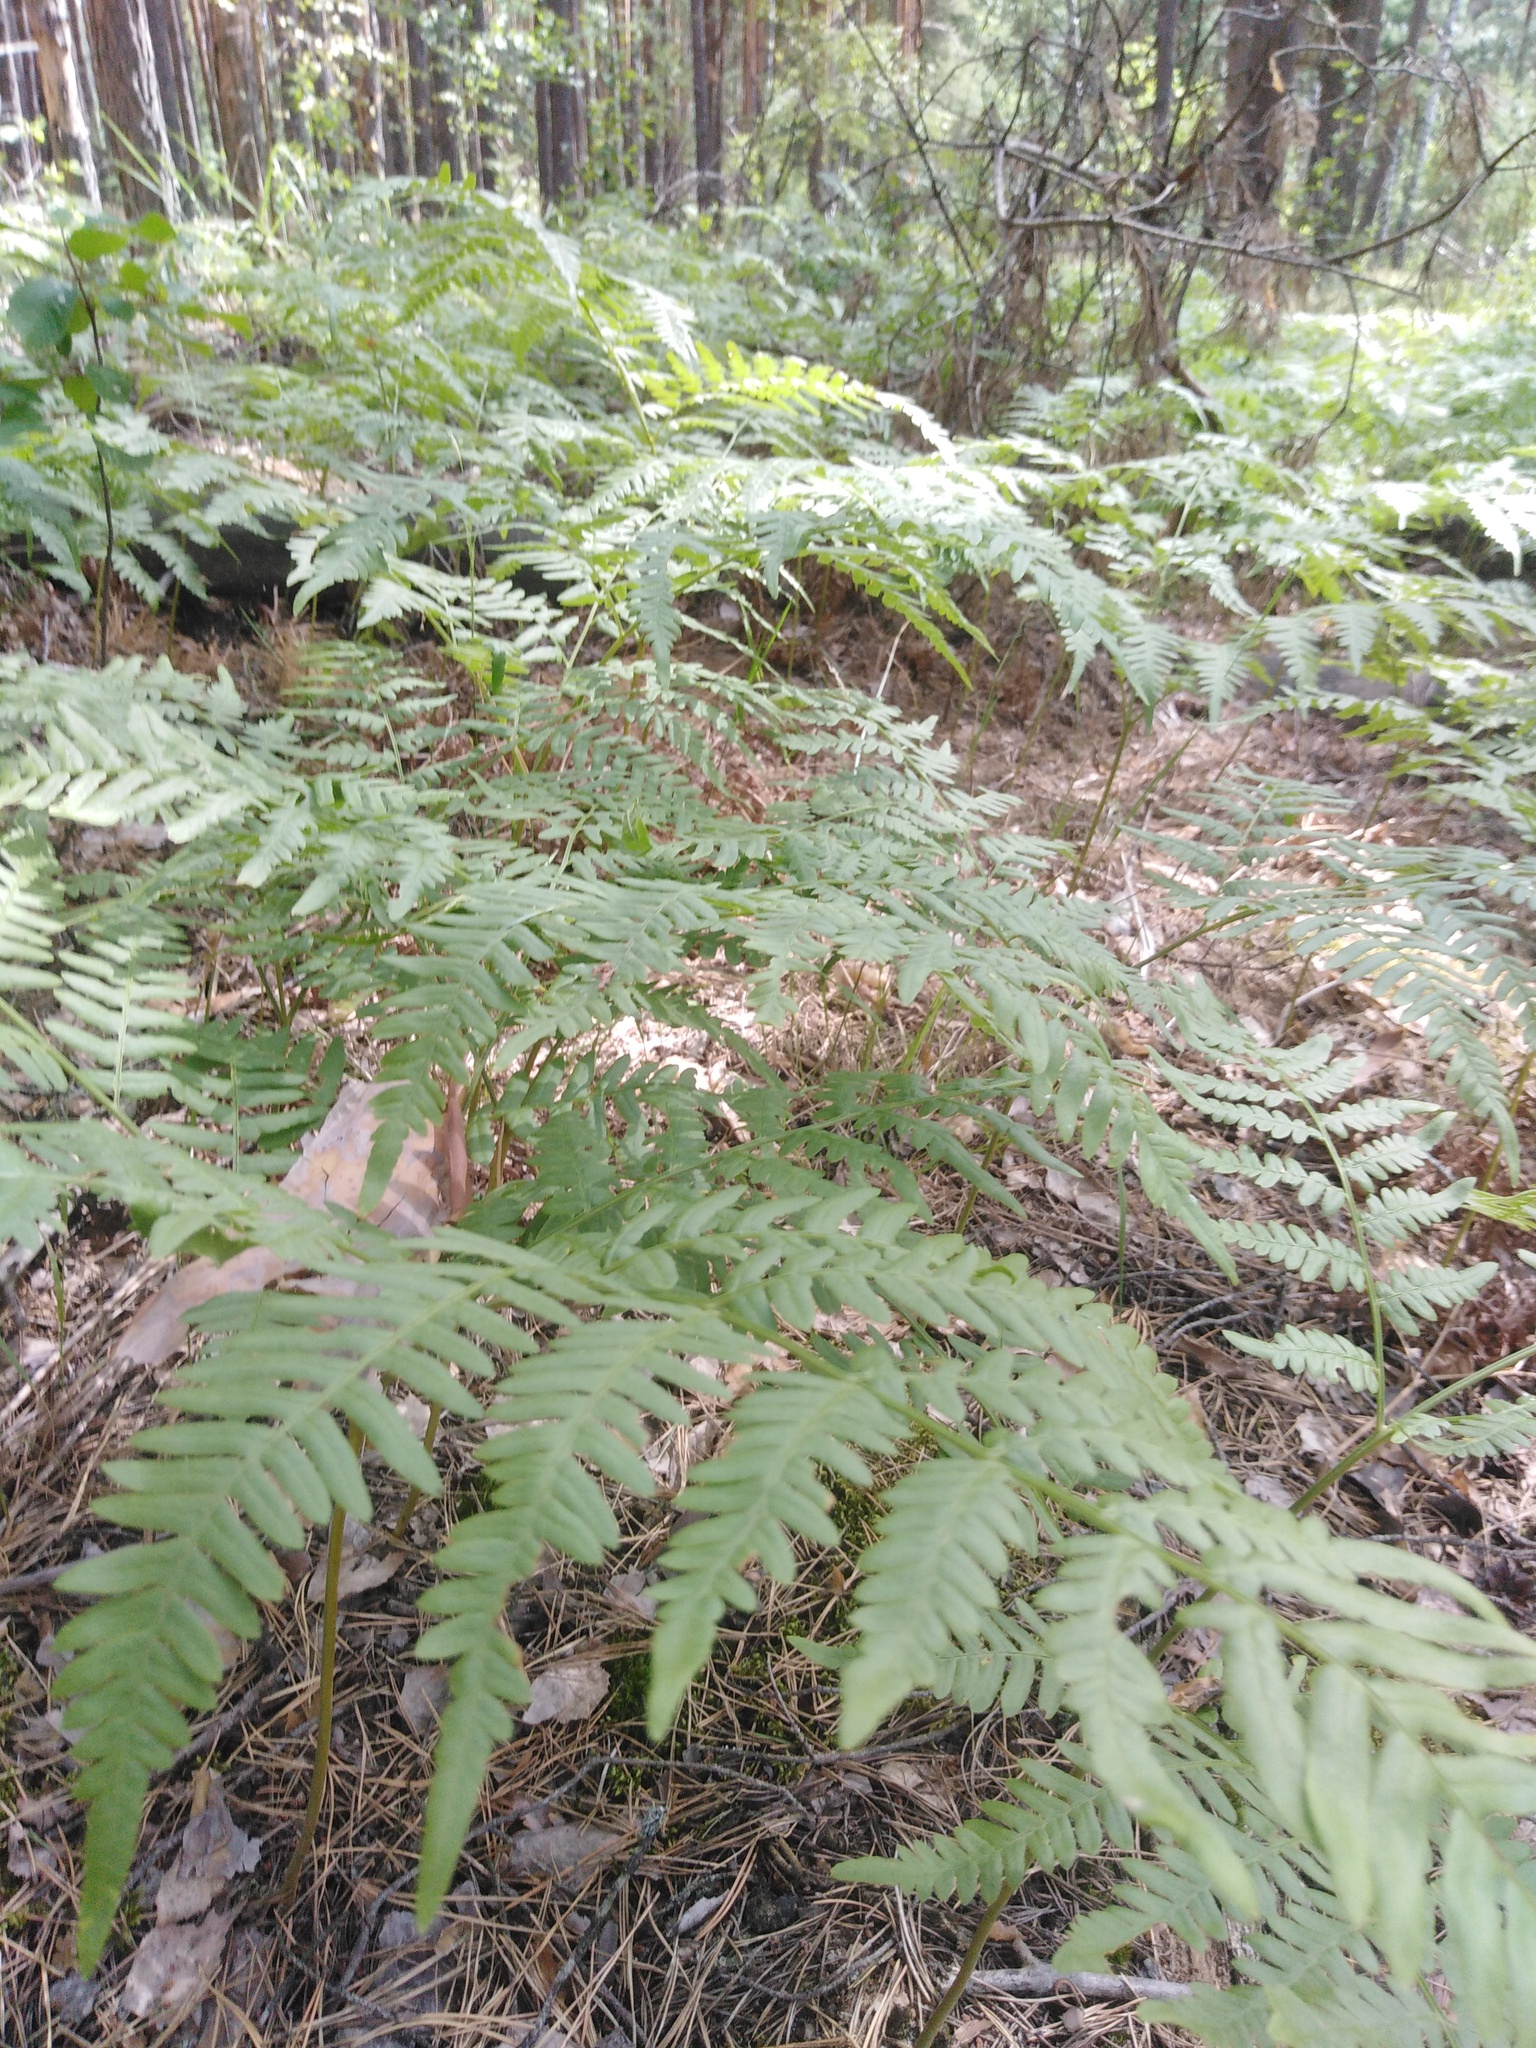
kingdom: Plantae
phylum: Tracheophyta
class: Polypodiopsida
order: Polypodiales
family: Dennstaedtiaceae
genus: Pteridium
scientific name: Pteridium aquilinum
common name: Bracken
